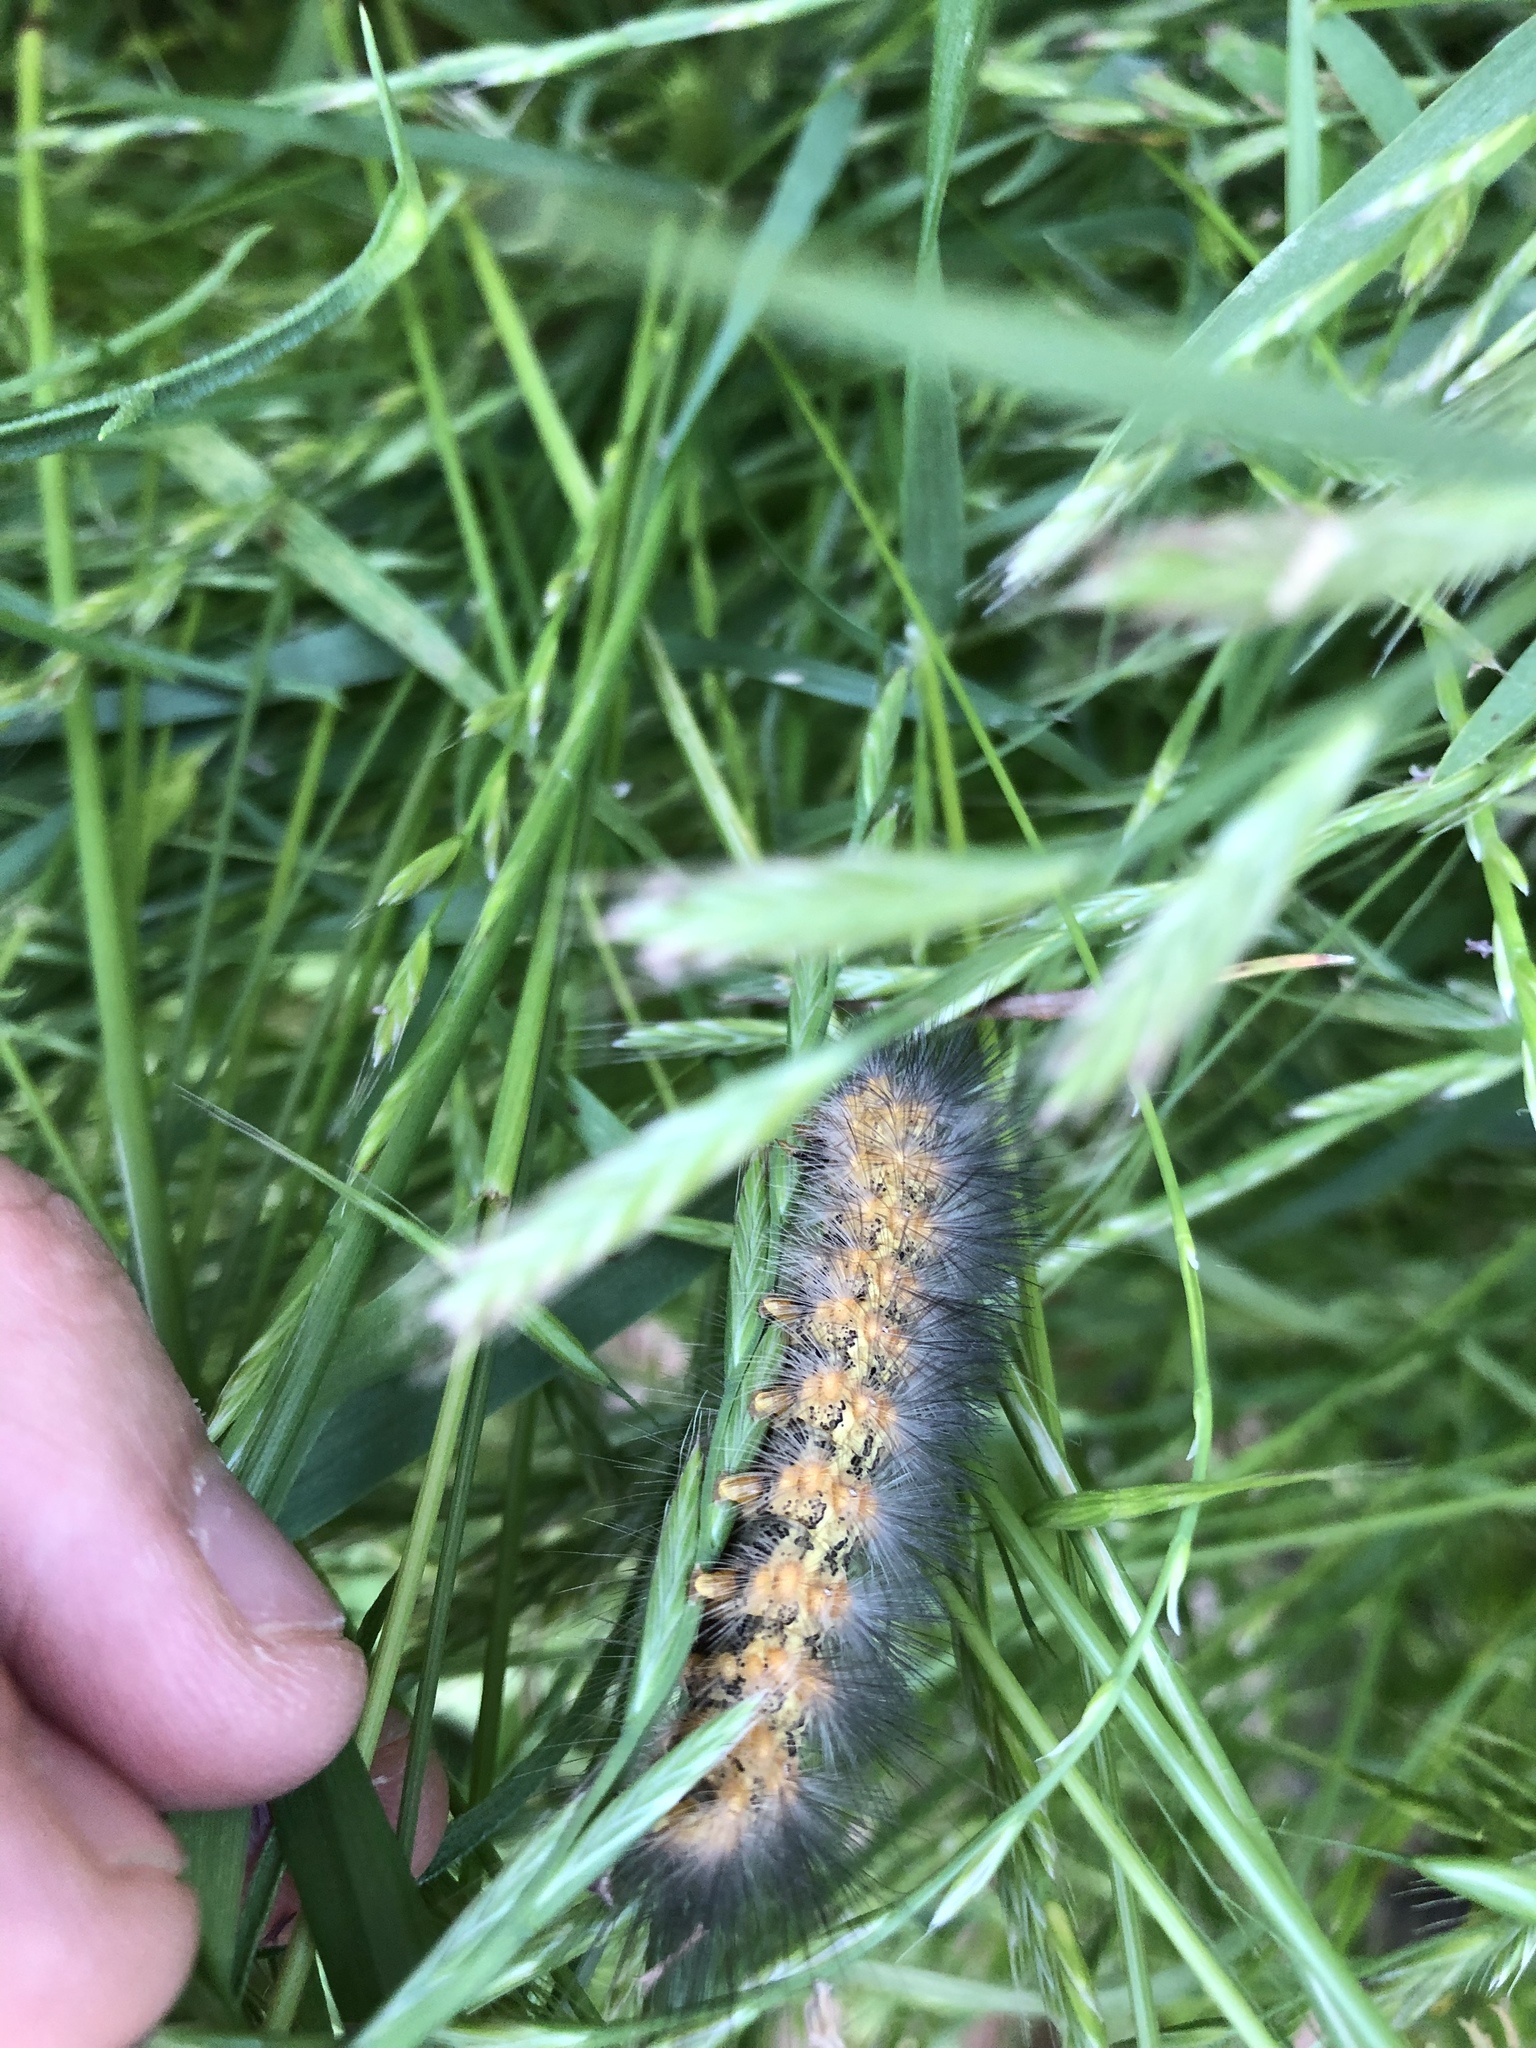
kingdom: Animalia
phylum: Arthropoda
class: Insecta
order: Lepidoptera
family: Erebidae
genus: Estigmene
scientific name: Estigmene acrea
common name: Salt marsh moth
